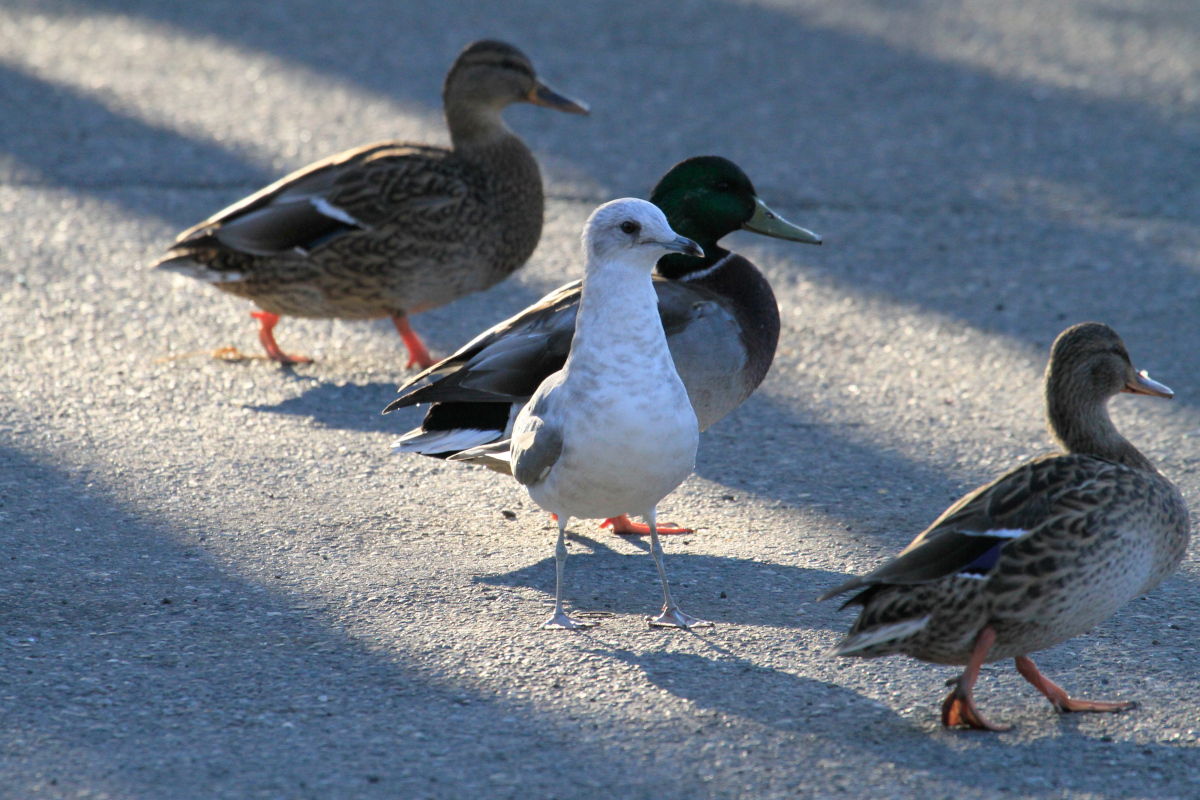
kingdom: Animalia
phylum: Chordata
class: Aves
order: Charadriiformes
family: Laridae
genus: Larus
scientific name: Larus brachyrhynchus
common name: Short-billed gull
